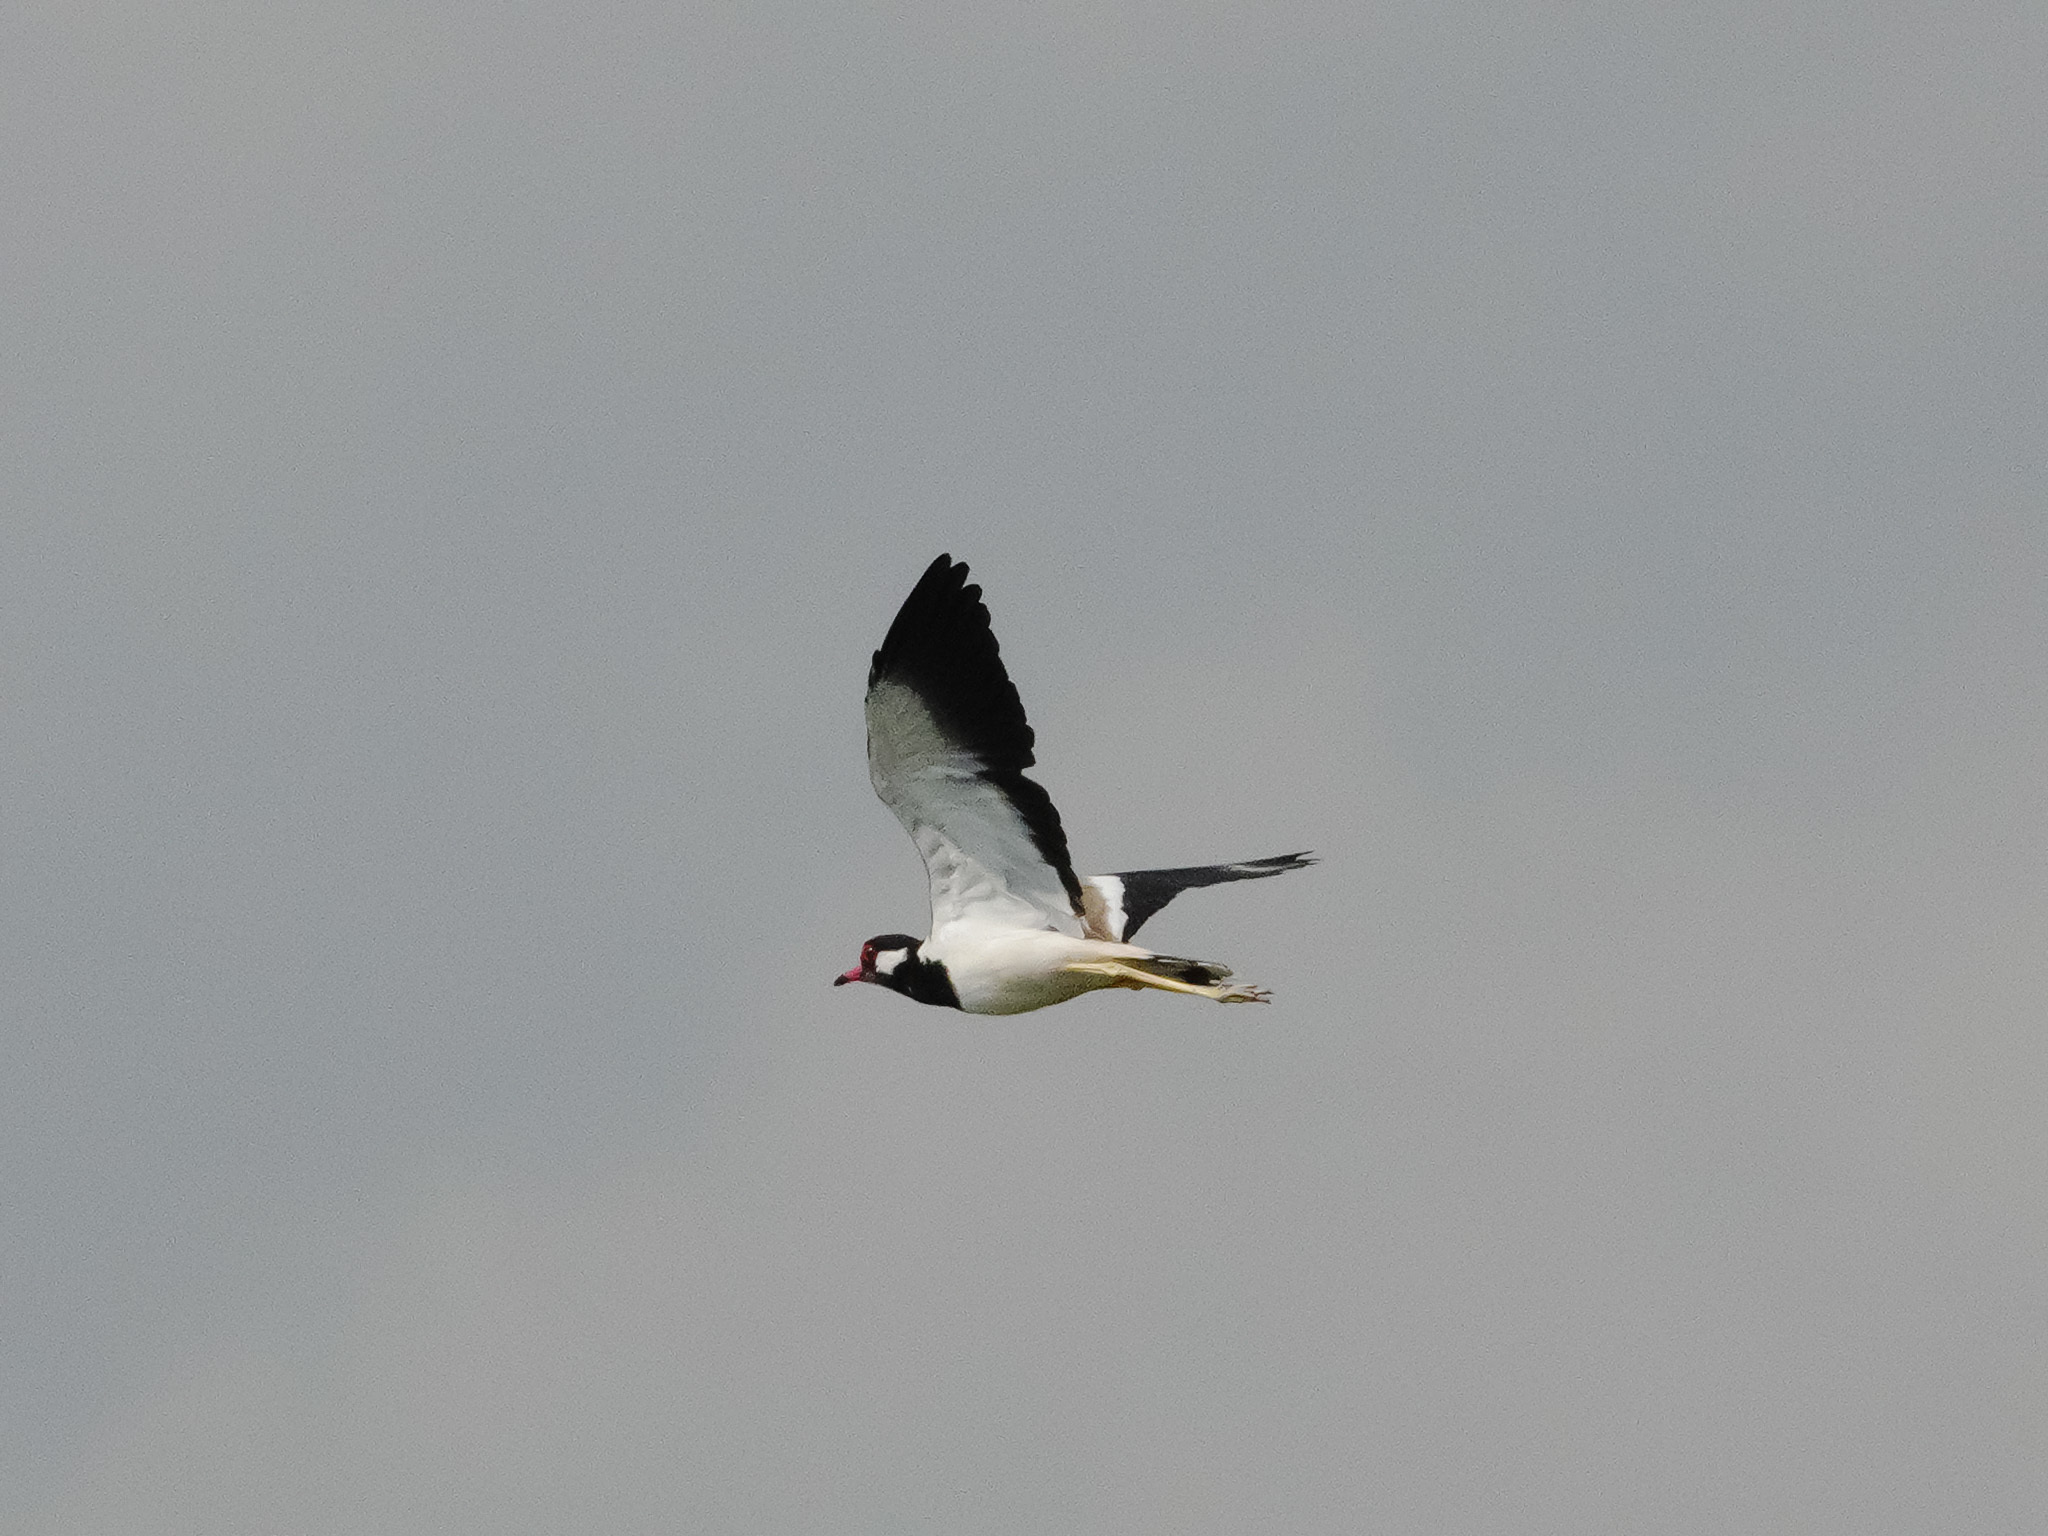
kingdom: Animalia
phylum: Chordata
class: Aves
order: Charadriiformes
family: Charadriidae
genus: Vanellus
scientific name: Vanellus indicus
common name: Red-wattled lapwing
